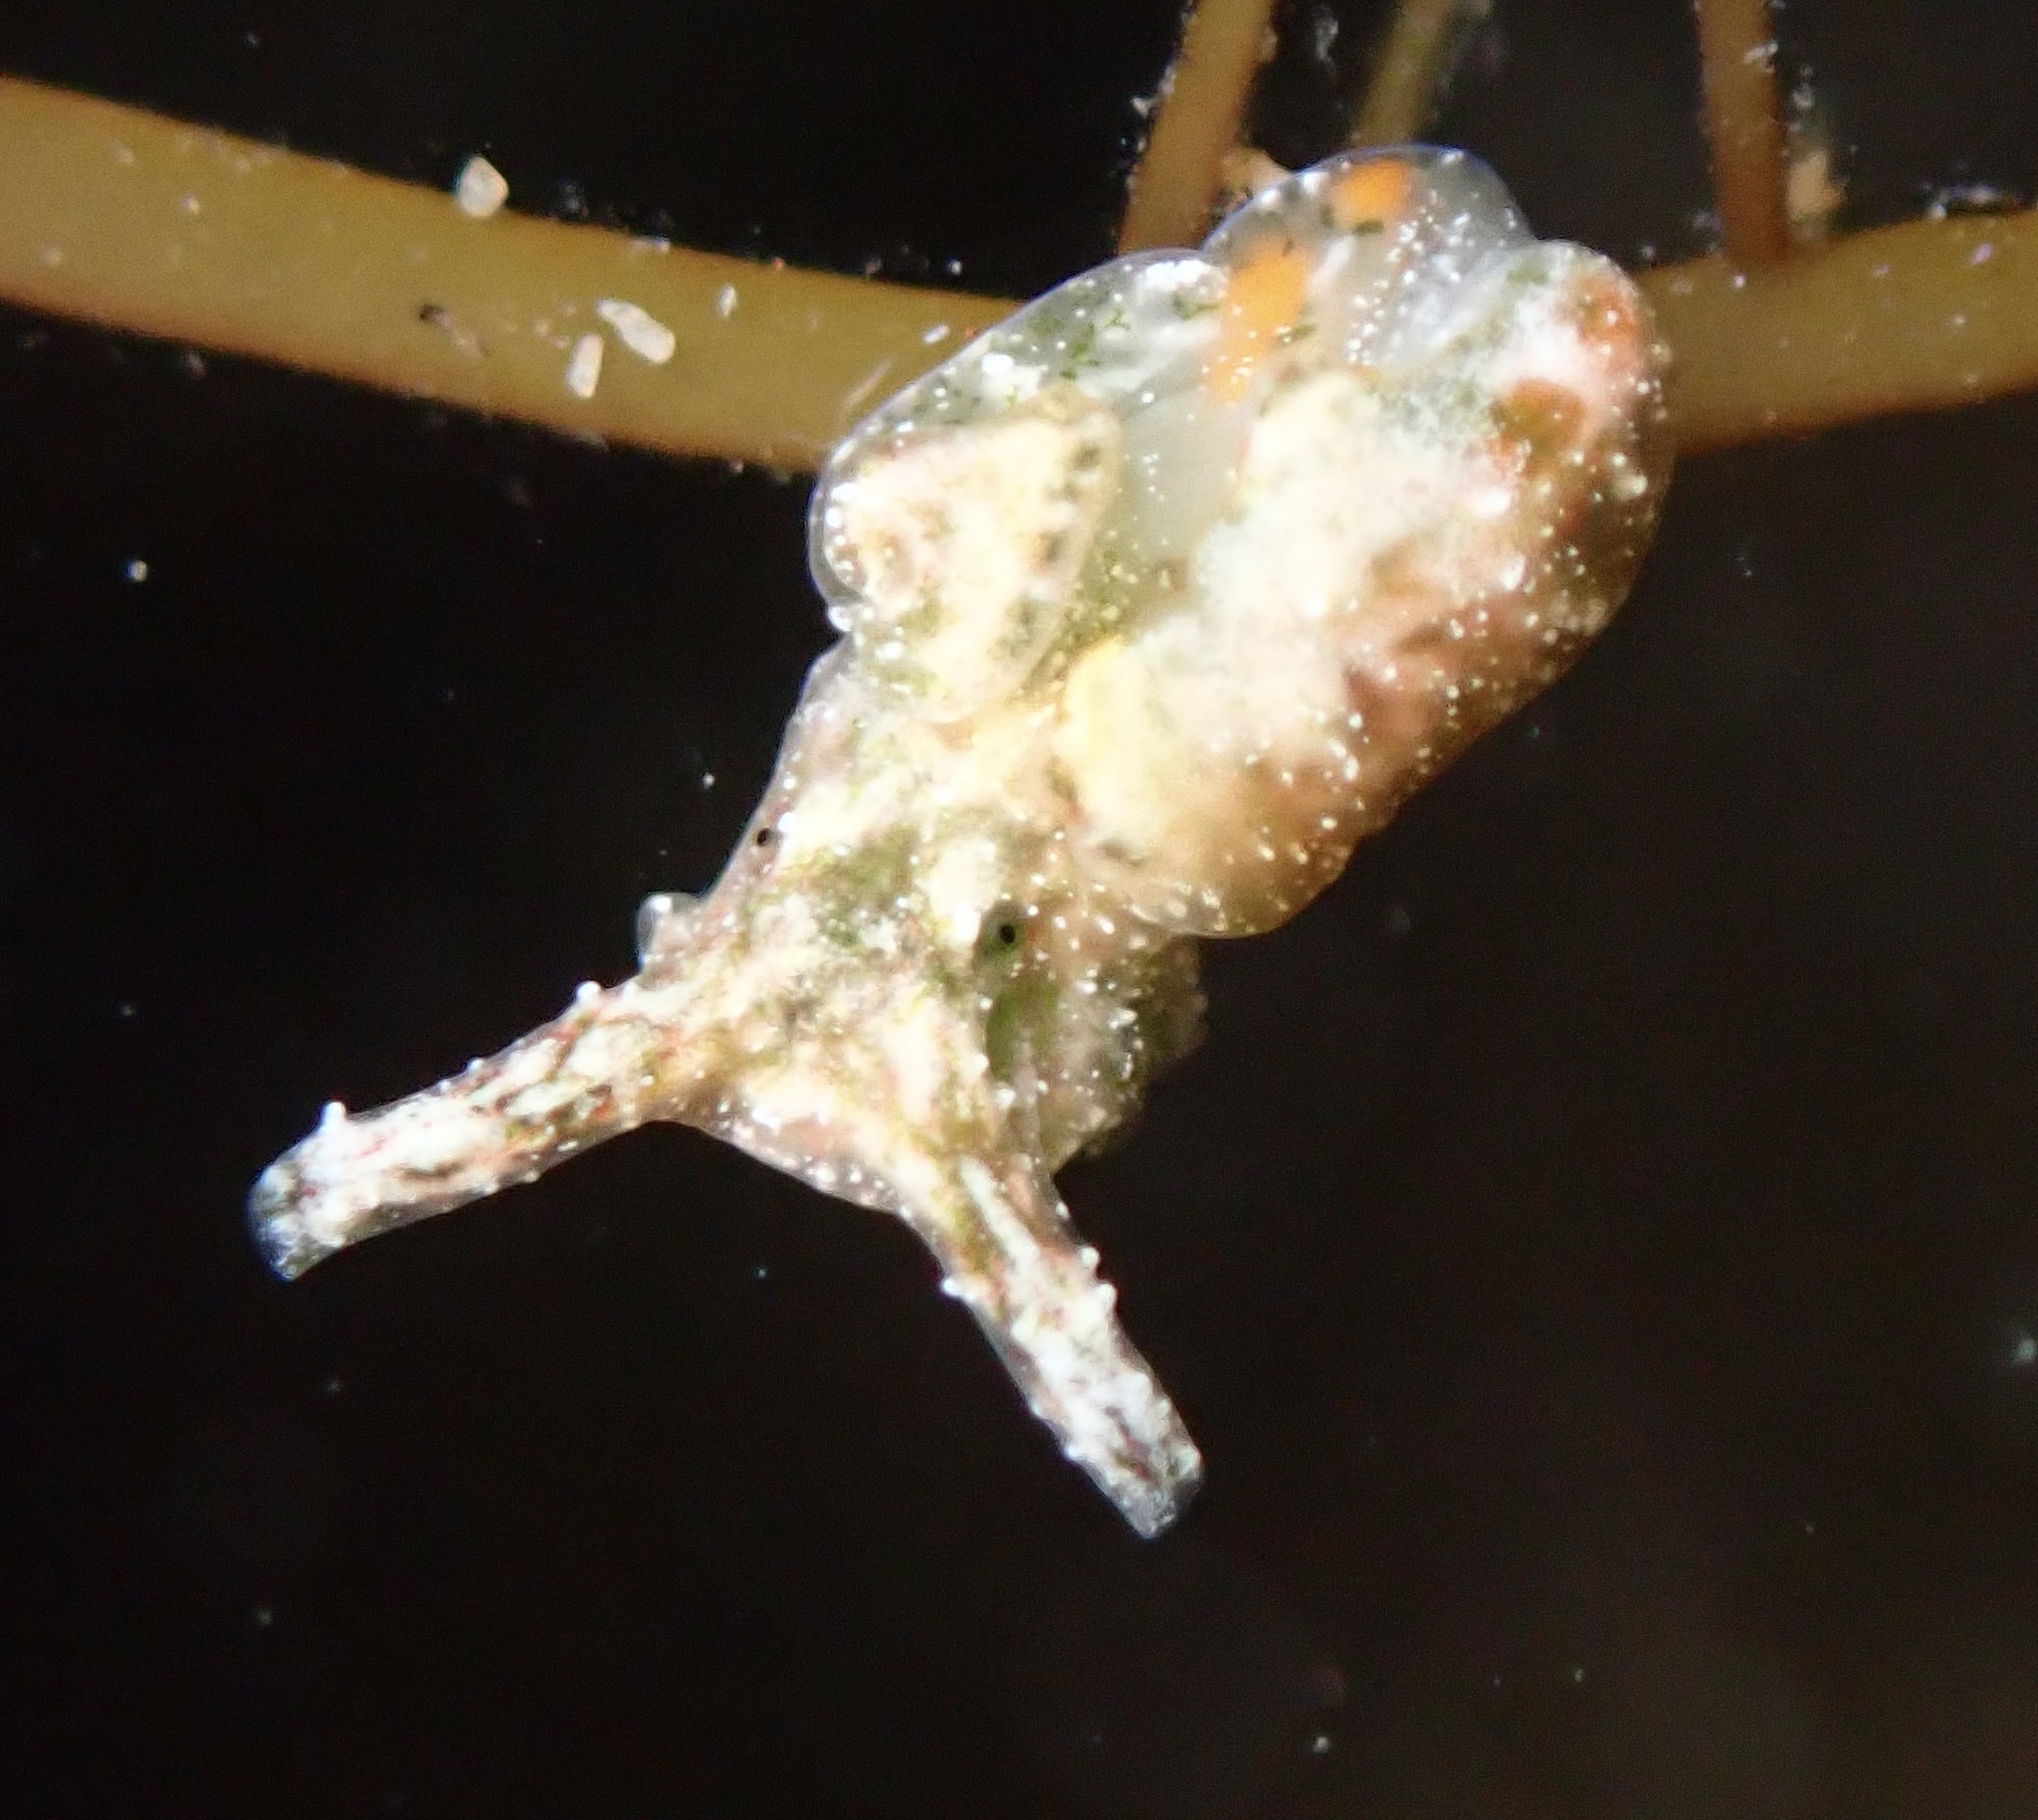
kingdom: Animalia
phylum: Mollusca
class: Gastropoda
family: Plakobranchidae
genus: Elysia
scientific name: Elysia degeneri
